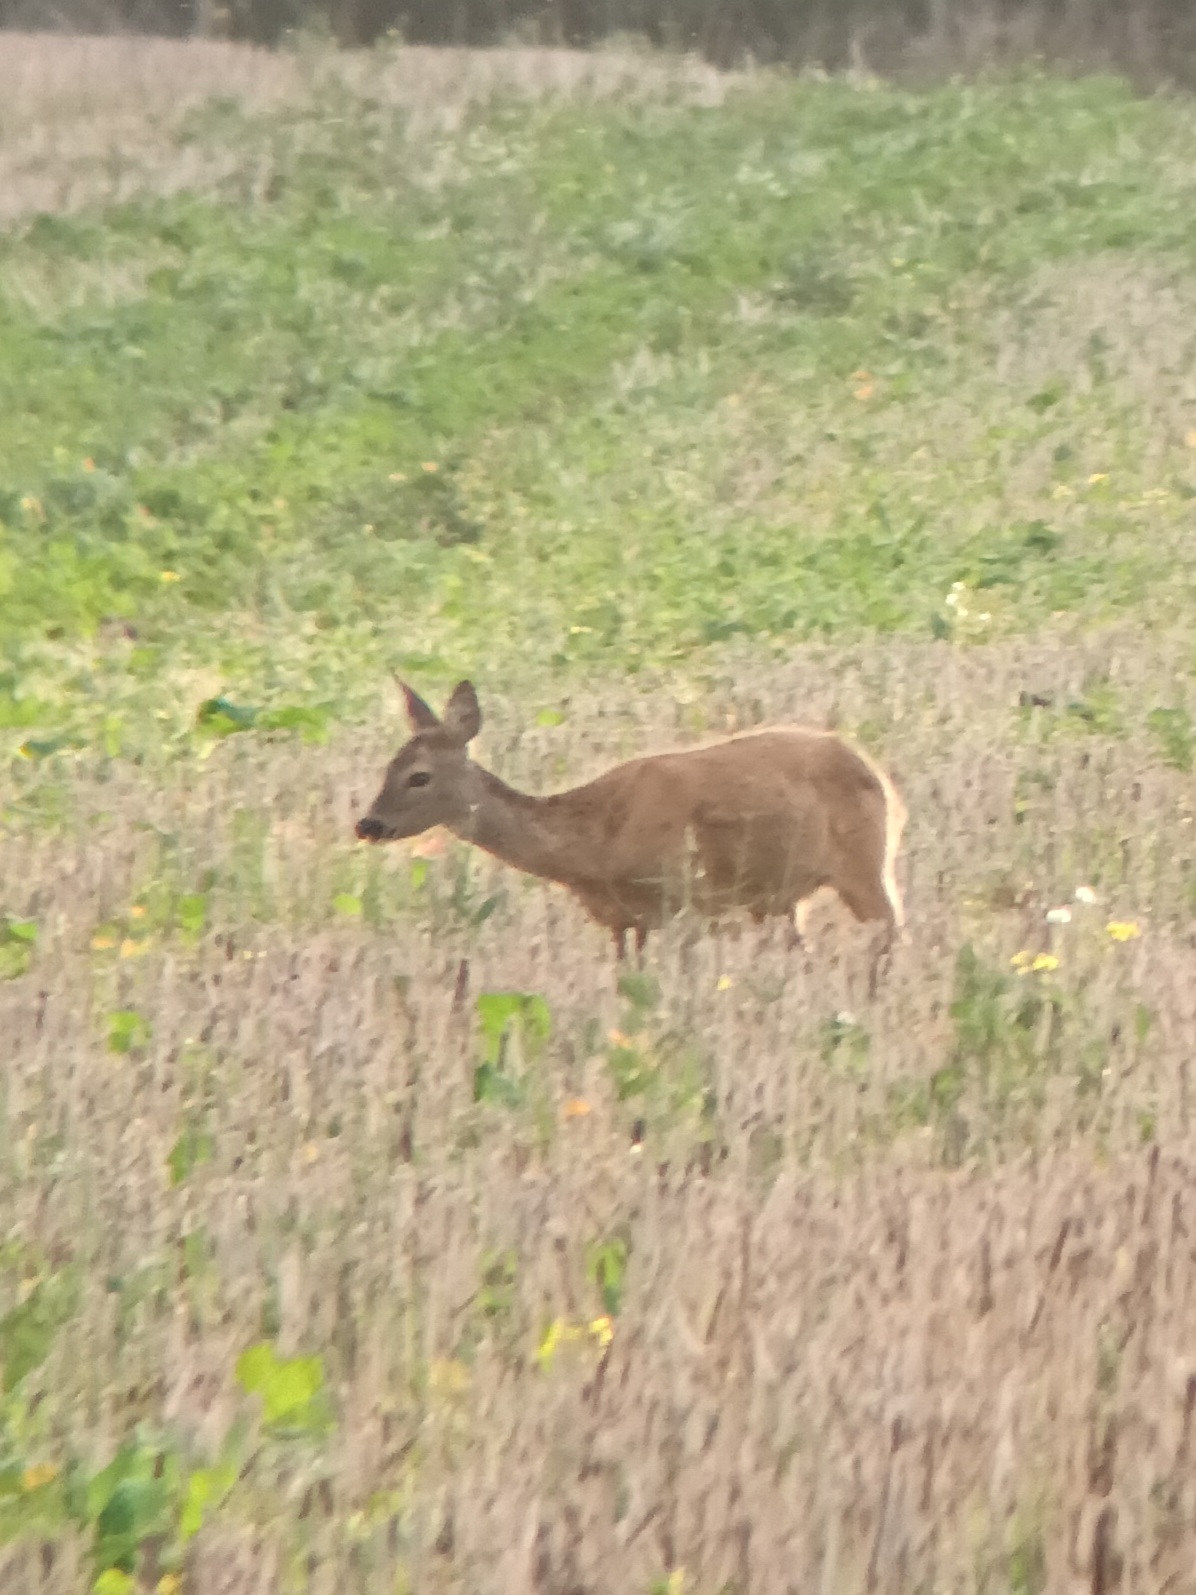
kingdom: Animalia
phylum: Chordata
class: Mammalia
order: Artiodactyla
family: Cervidae
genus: Capreolus
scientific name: Capreolus capreolus
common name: Western roe deer
